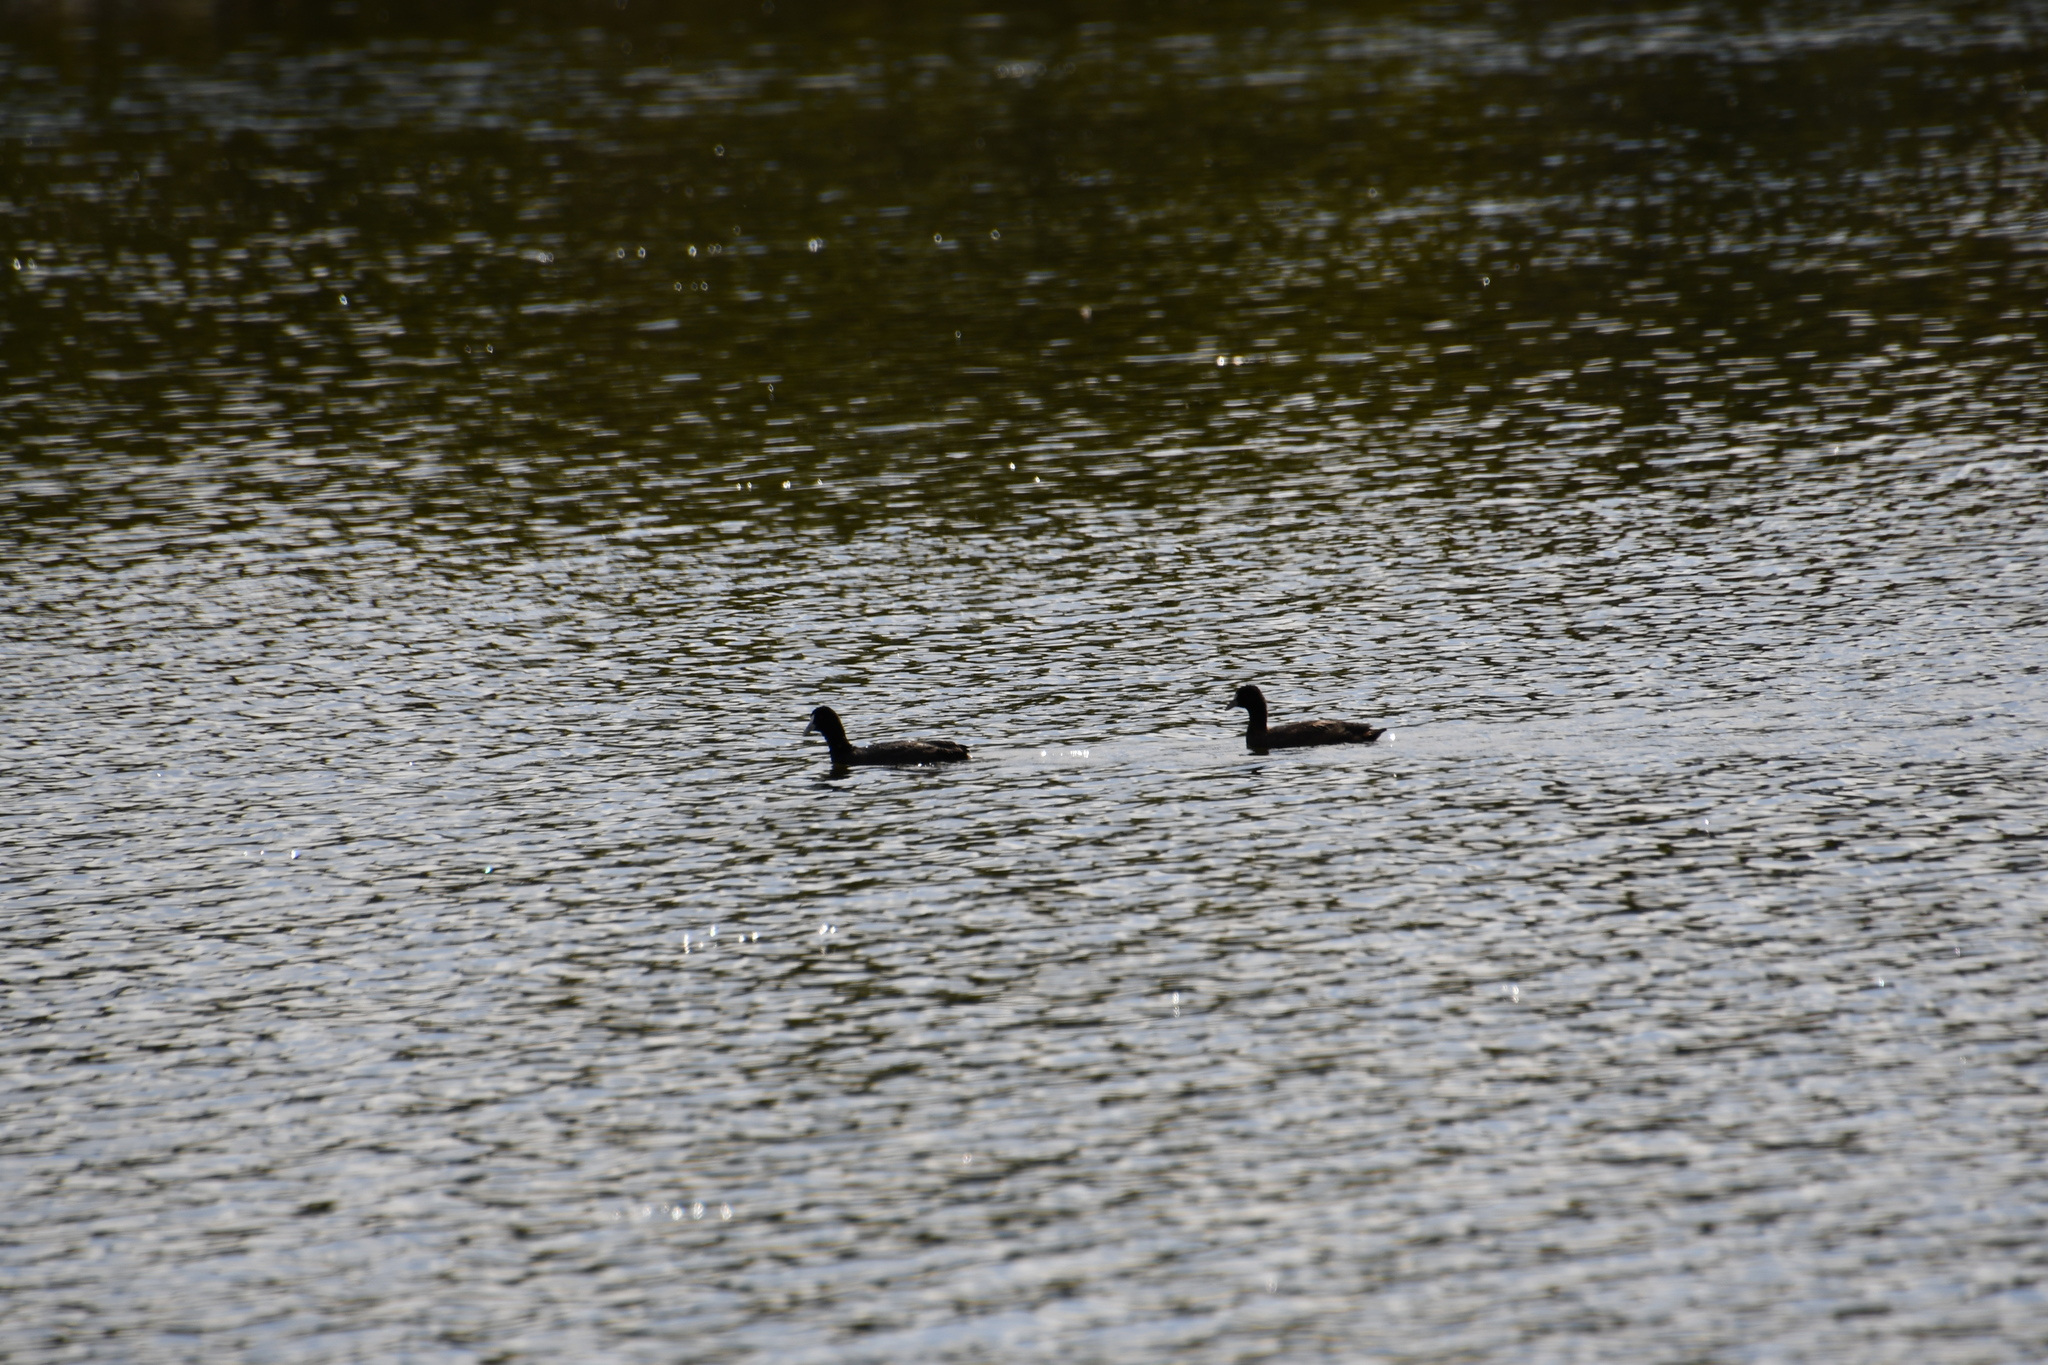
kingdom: Animalia
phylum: Chordata
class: Aves
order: Gruiformes
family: Rallidae
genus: Fulica
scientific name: Fulica atra
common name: Eurasian coot
